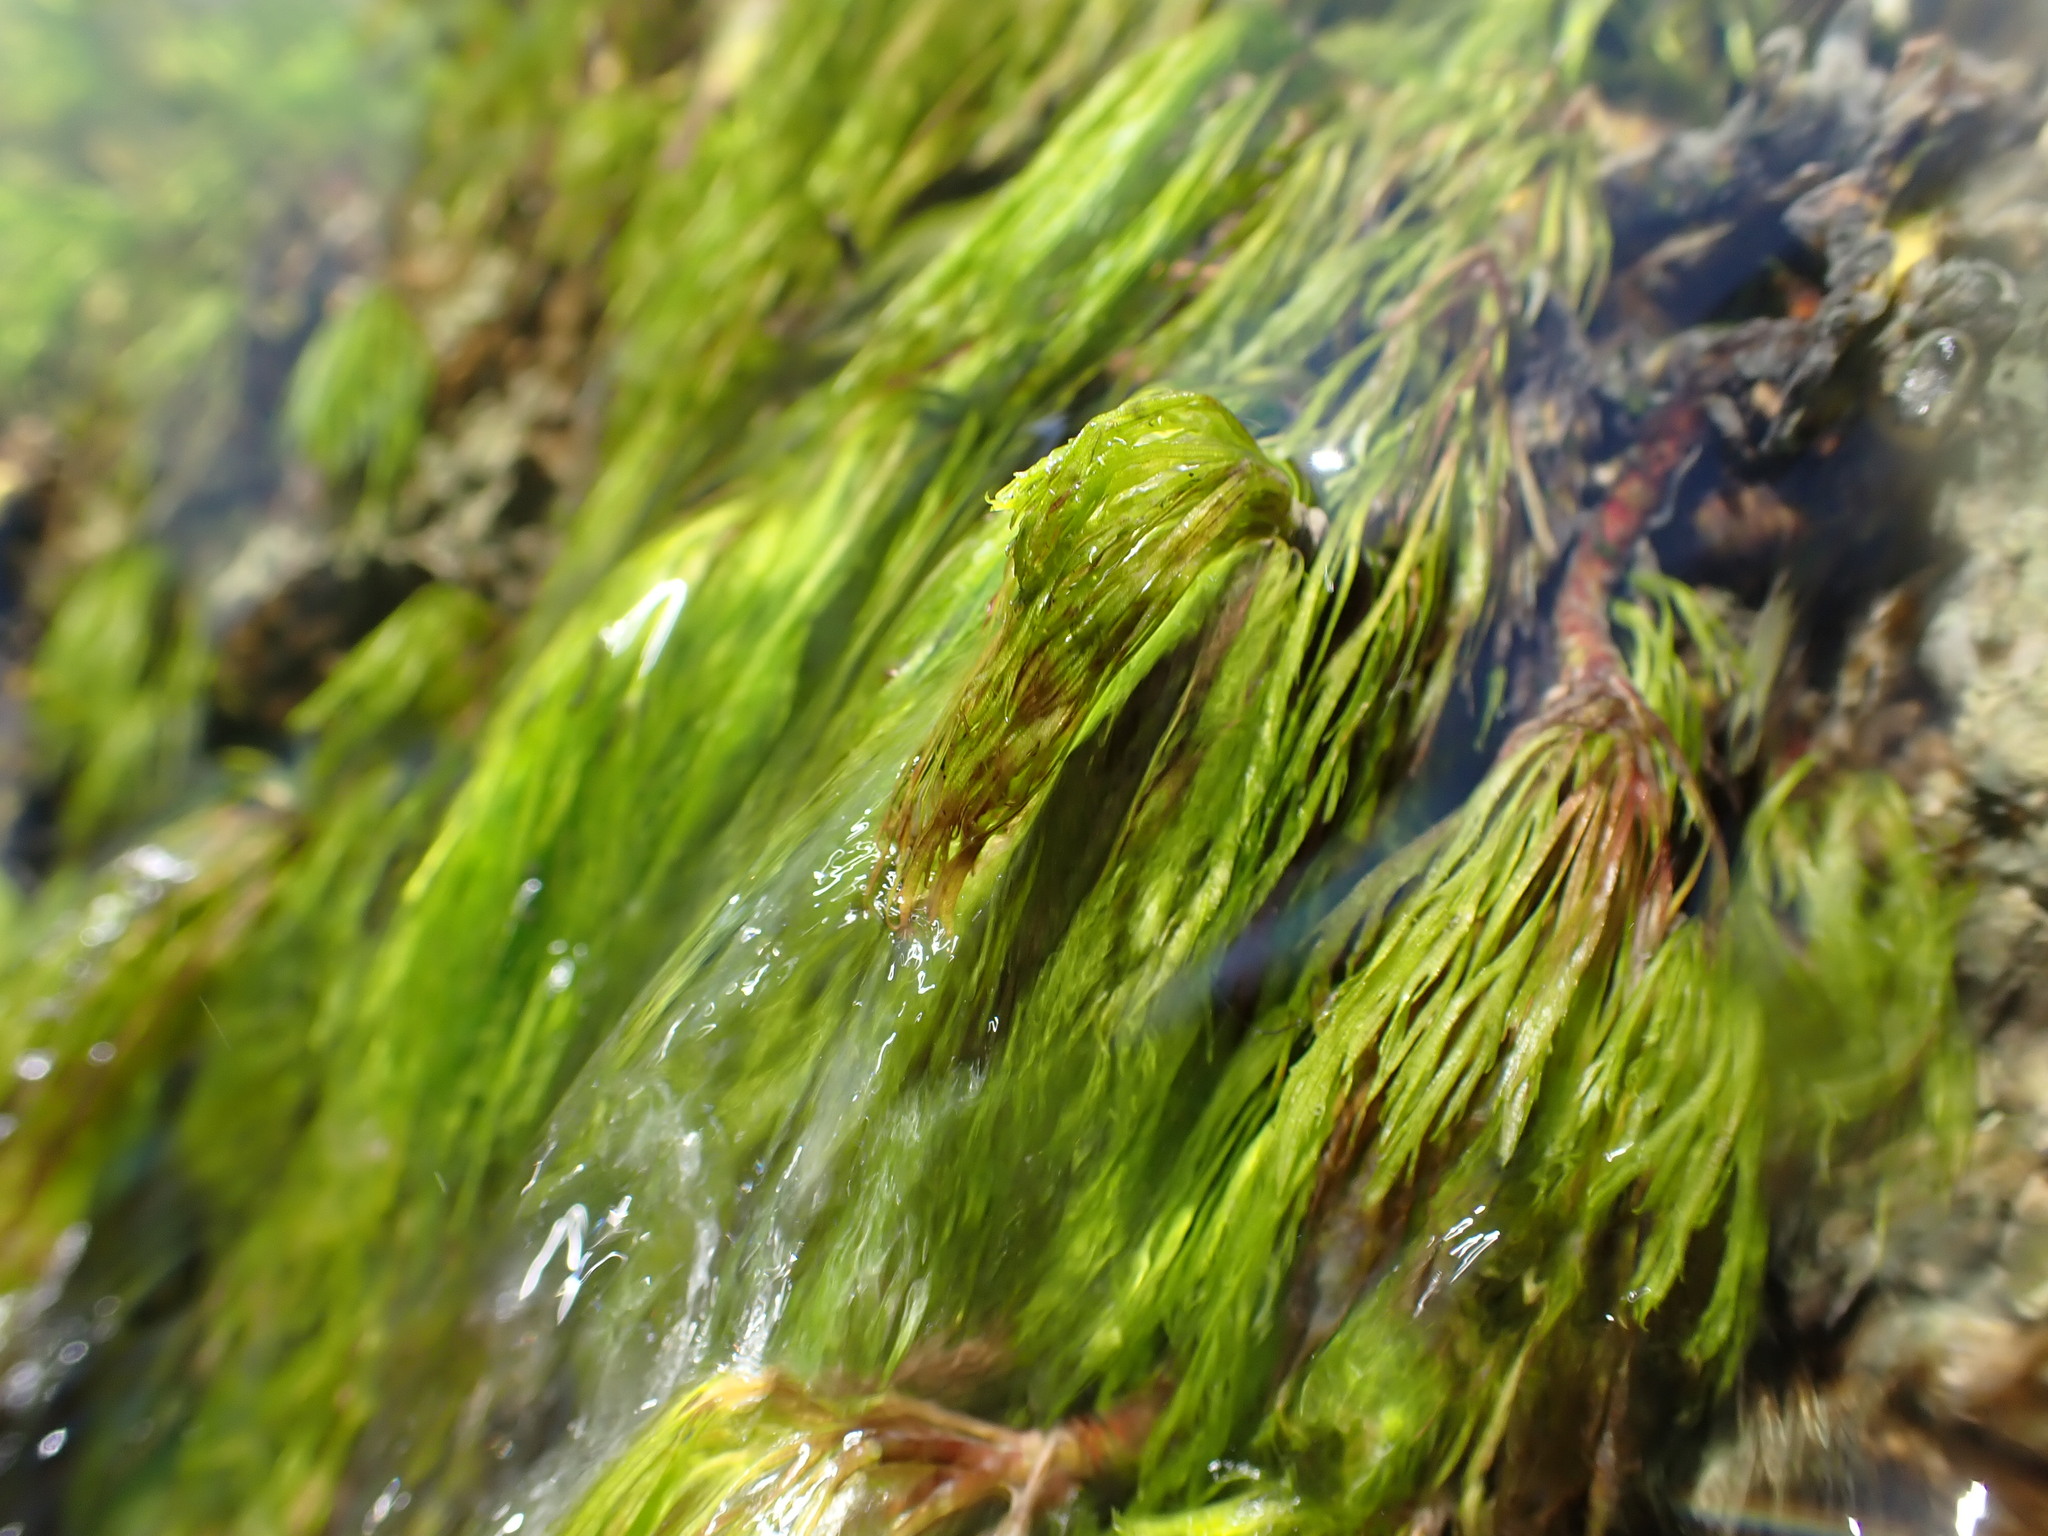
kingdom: Plantae
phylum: Tracheophyta
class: Magnoliopsida
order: Asterales
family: Asteraceae
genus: Erigeron
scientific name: Erigeron heteromorphus
